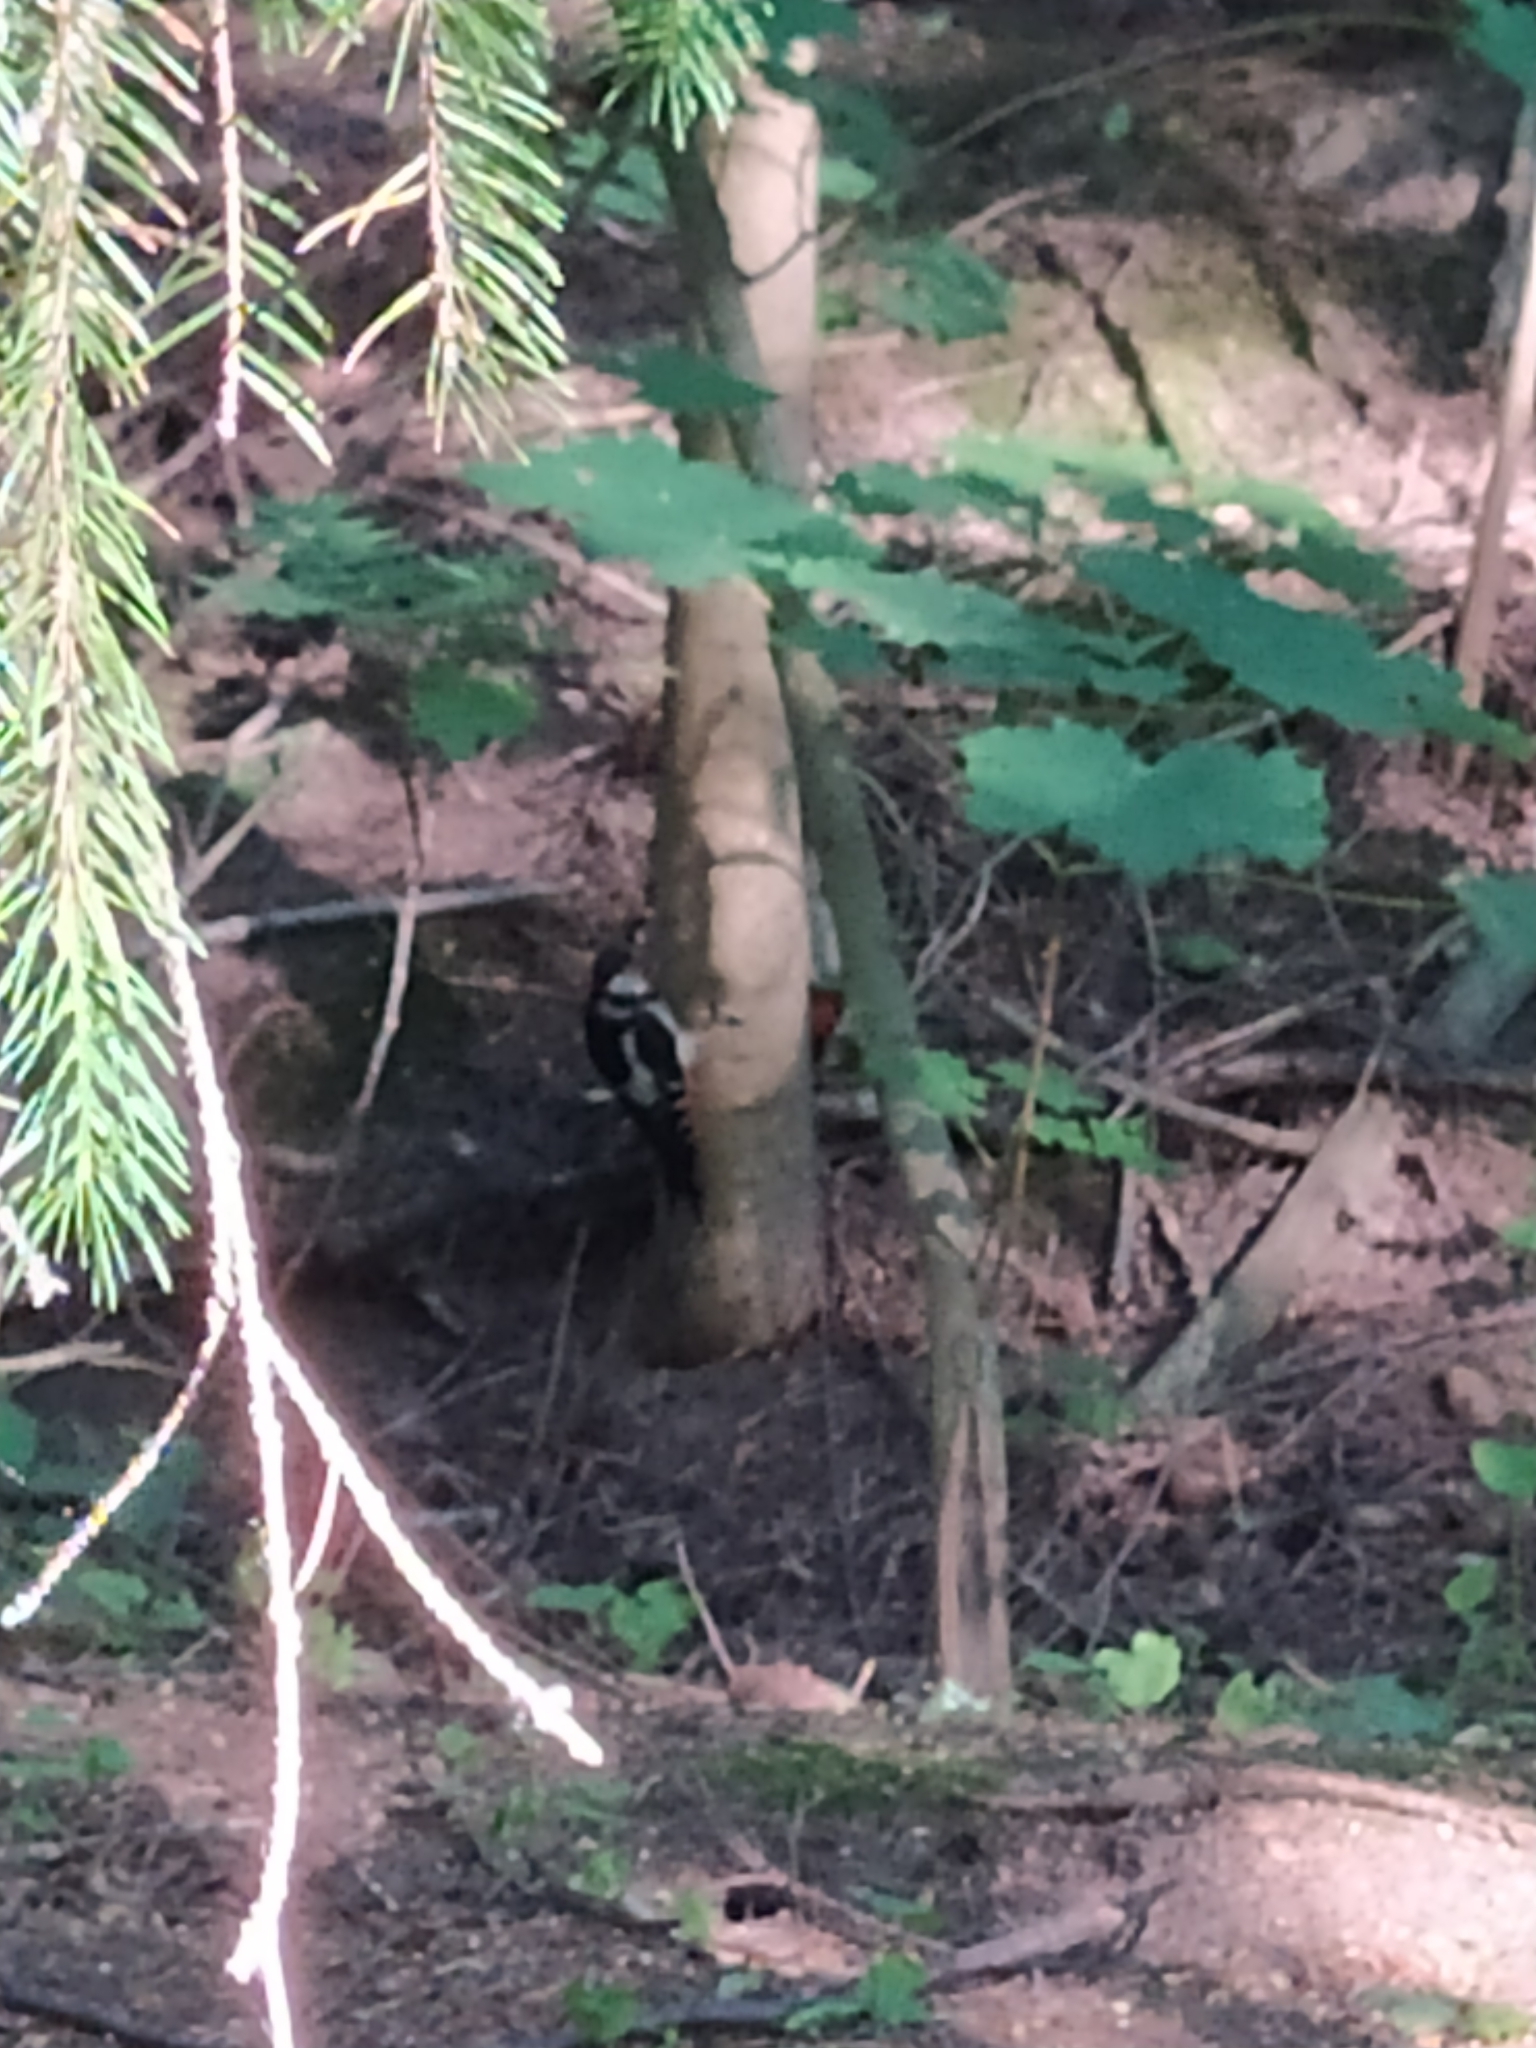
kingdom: Animalia
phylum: Chordata
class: Aves
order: Piciformes
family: Picidae
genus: Dendrocopos
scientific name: Dendrocopos major
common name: Great spotted woodpecker
